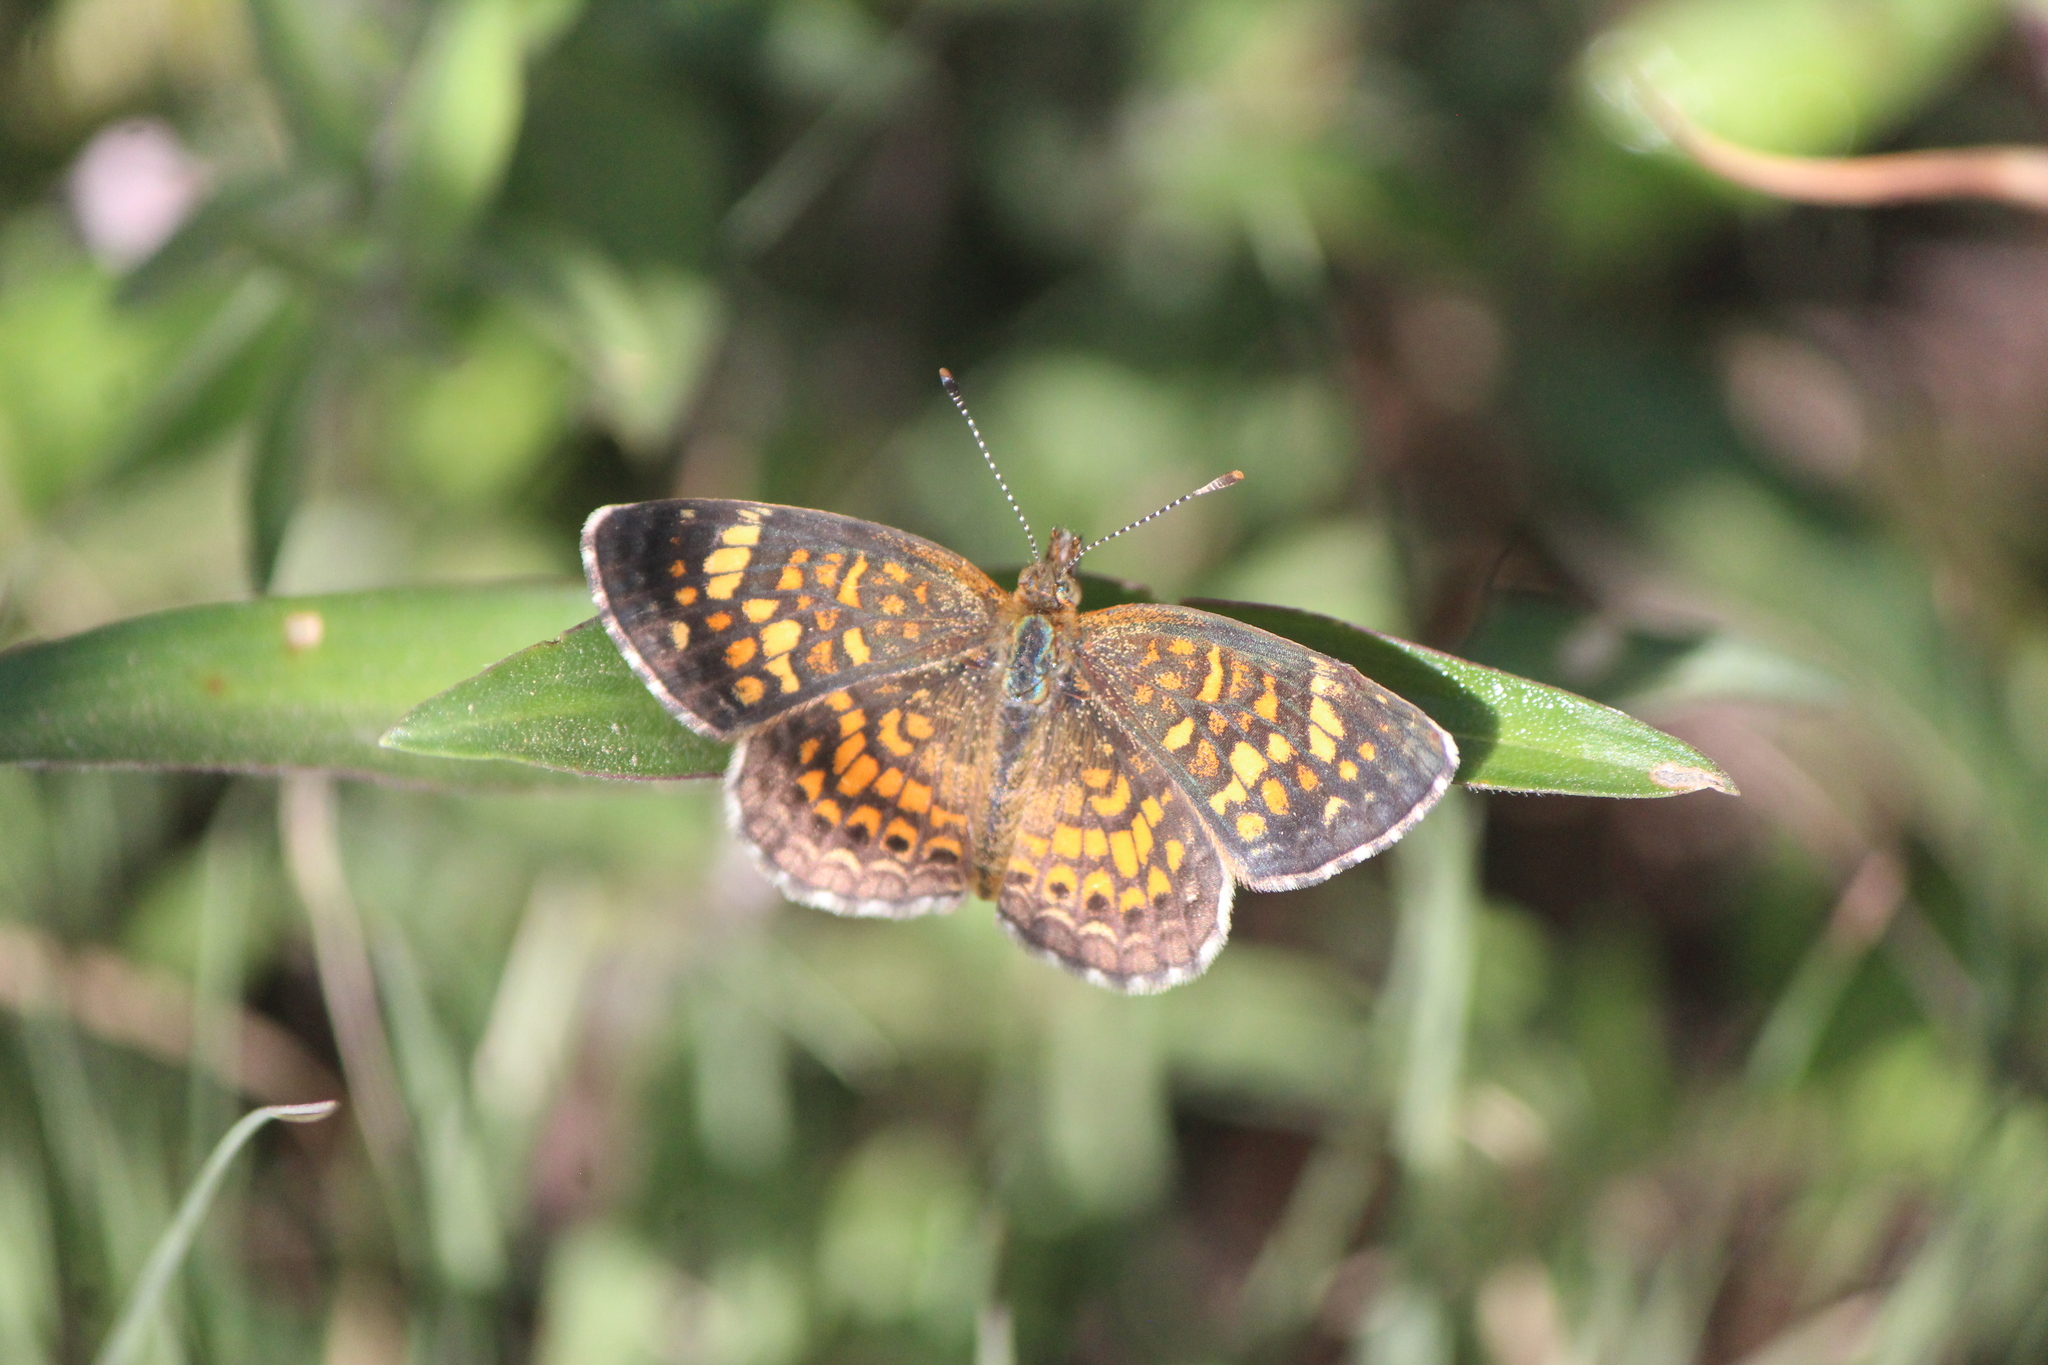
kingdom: Animalia
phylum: Arthropoda
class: Insecta
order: Lepidoptera
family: Nymphalidae
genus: Phyciodes
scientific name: Phyciodes vesta
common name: Vesta crescent
